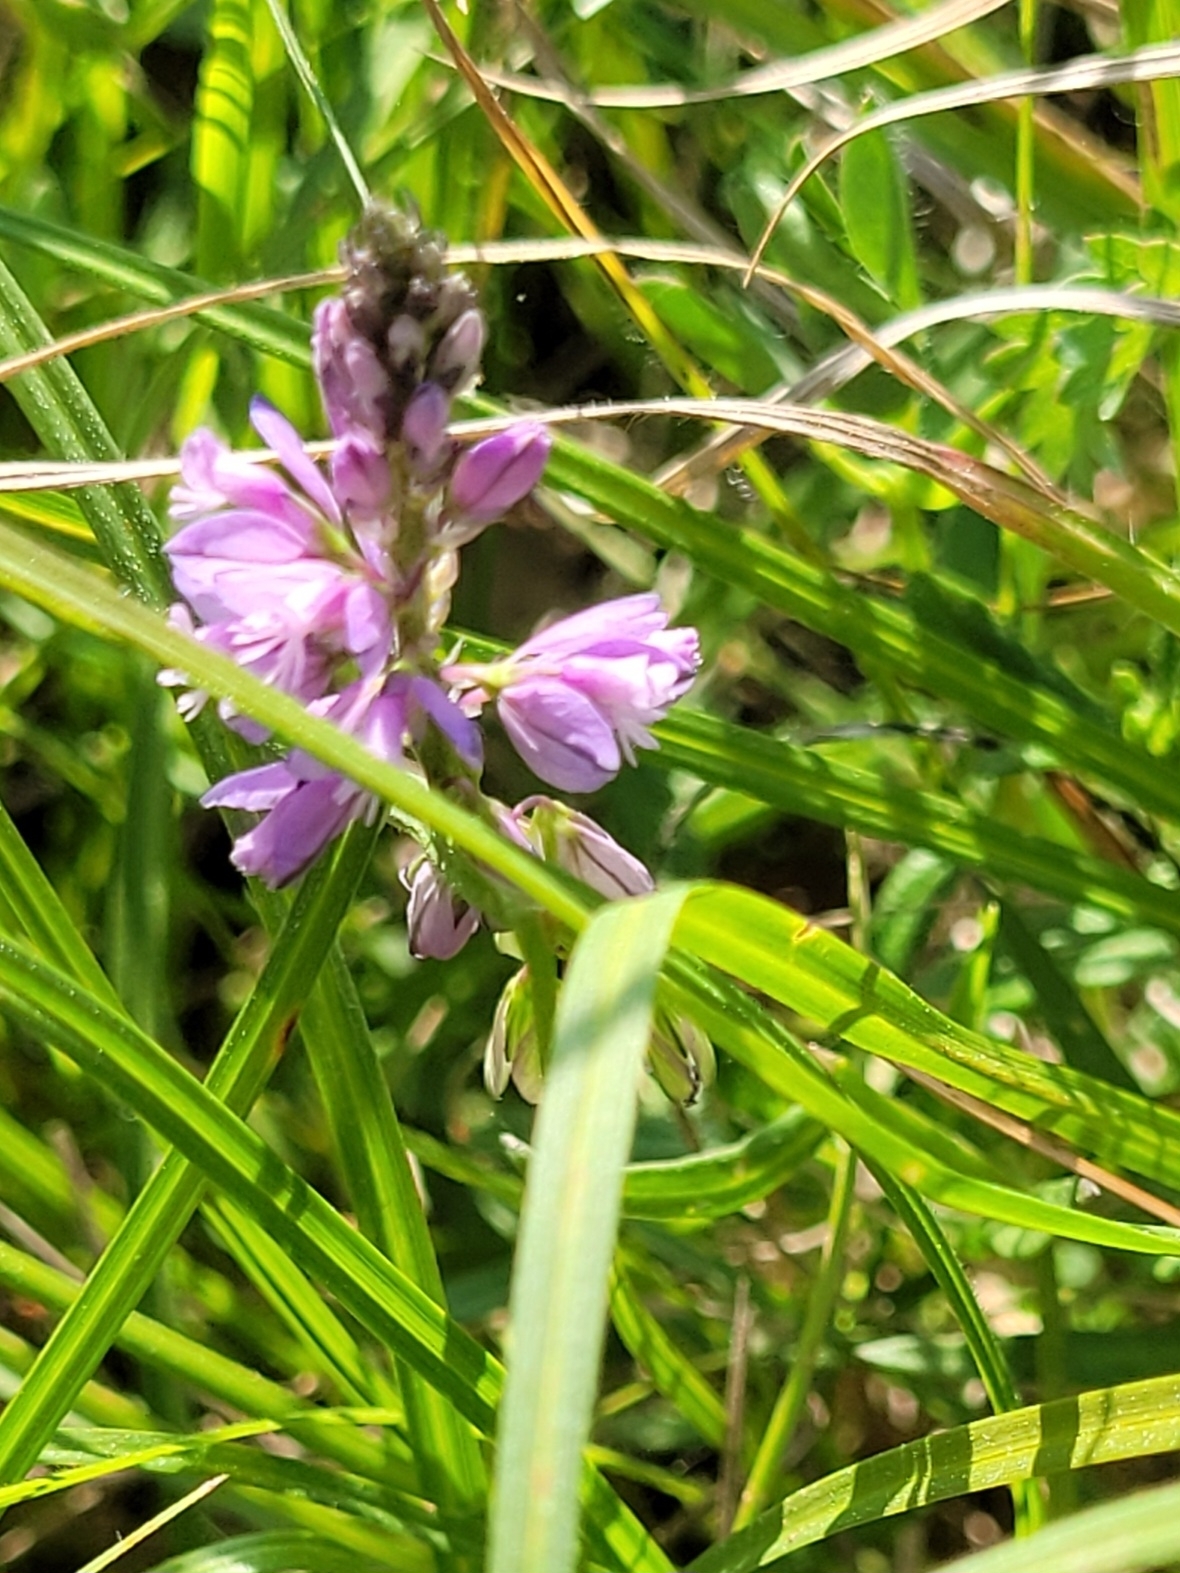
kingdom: Plantae
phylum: Tracheophyta
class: Magnoliopsida
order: Fabales
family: Polygalaceae
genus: Polygala
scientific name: Polygala comosa
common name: Tufted milkwort
